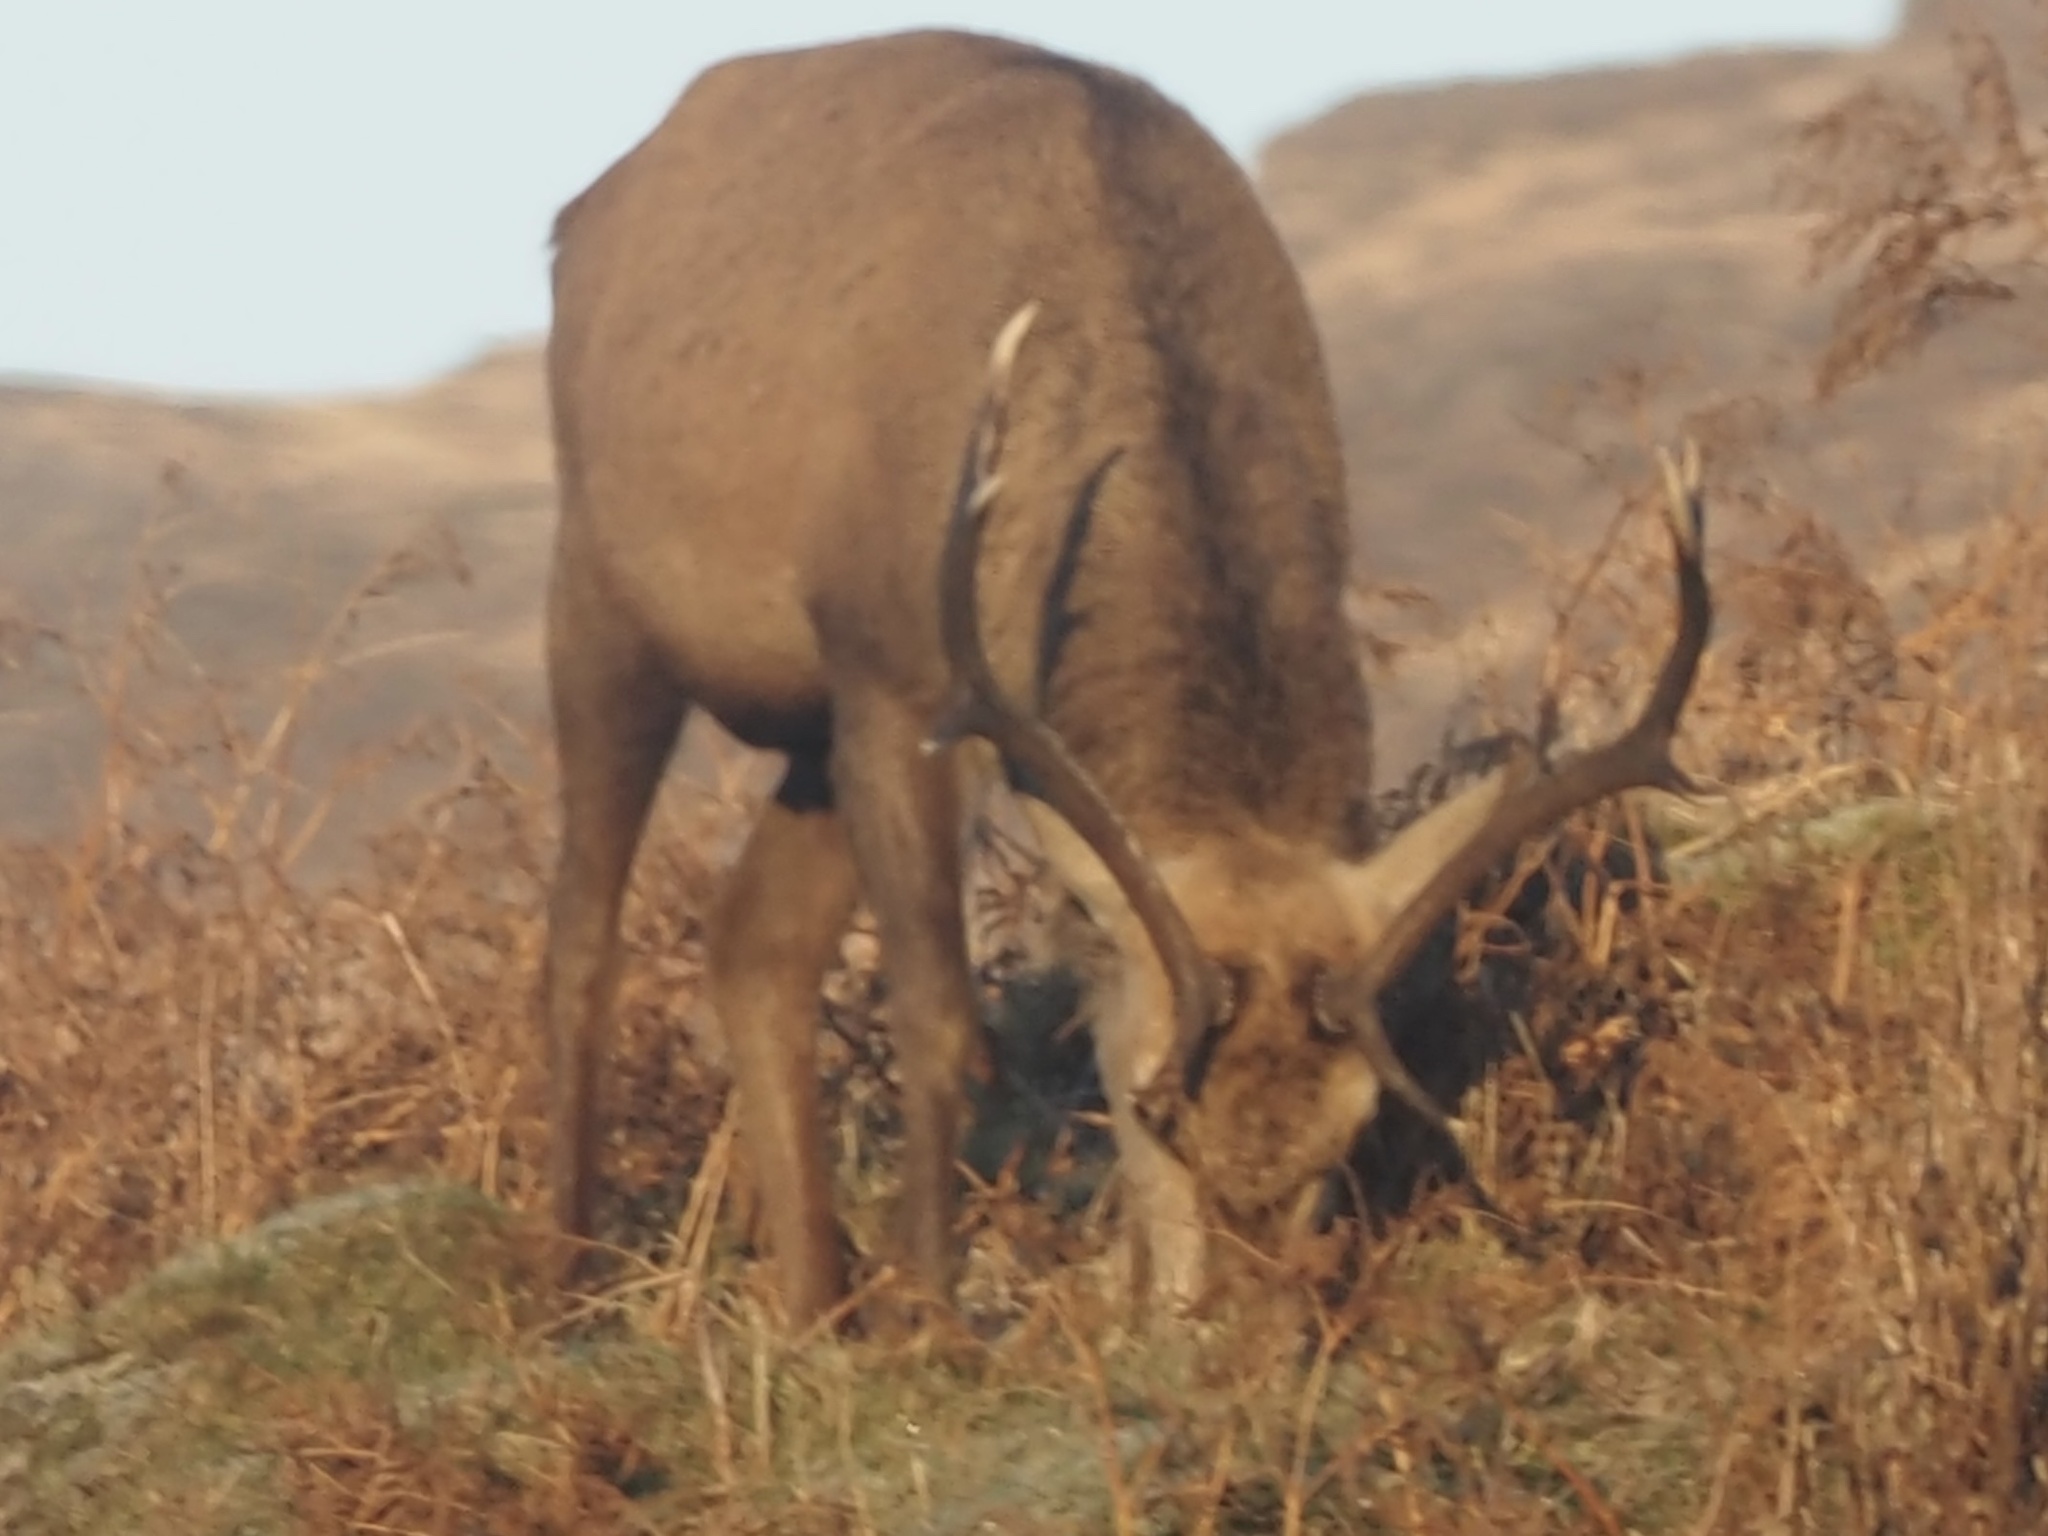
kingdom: Animalia
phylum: Chordata
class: Mammalia
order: Artiodactyla
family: Cervidae
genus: Cervus
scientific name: Cervus elaphus
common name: Red deer
